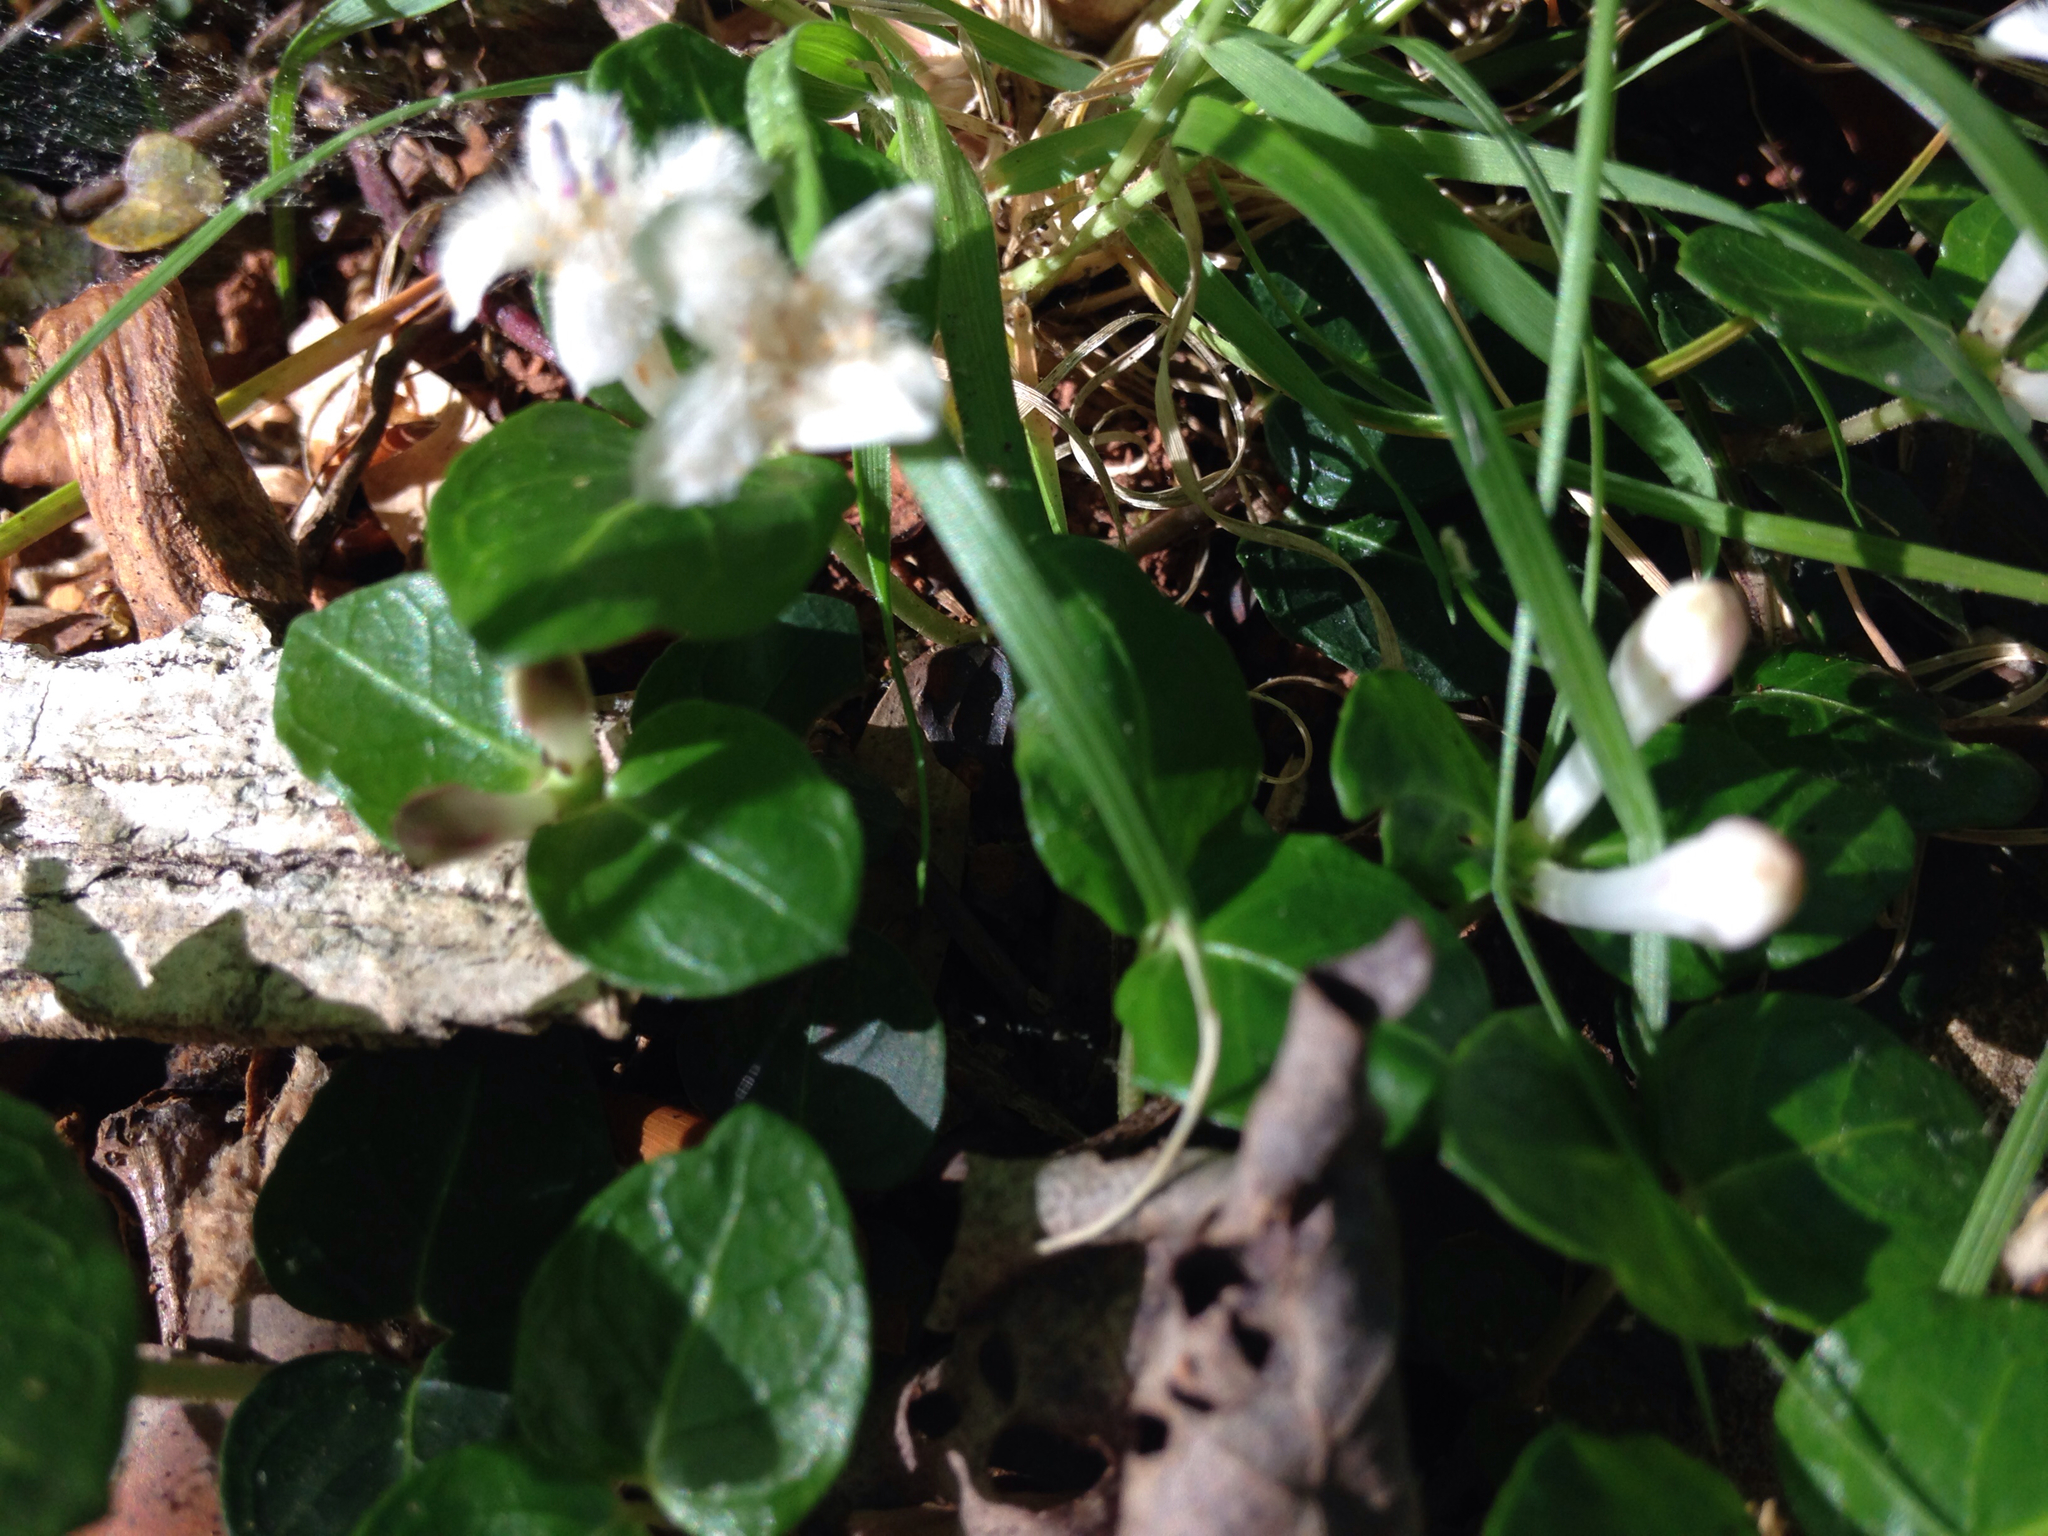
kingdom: Plantae
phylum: Tracheophyta
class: Magnoliopsida
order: Gentianales
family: Rubiaceae
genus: Mitchella
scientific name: Mitchella repens
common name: Partridge-berry
